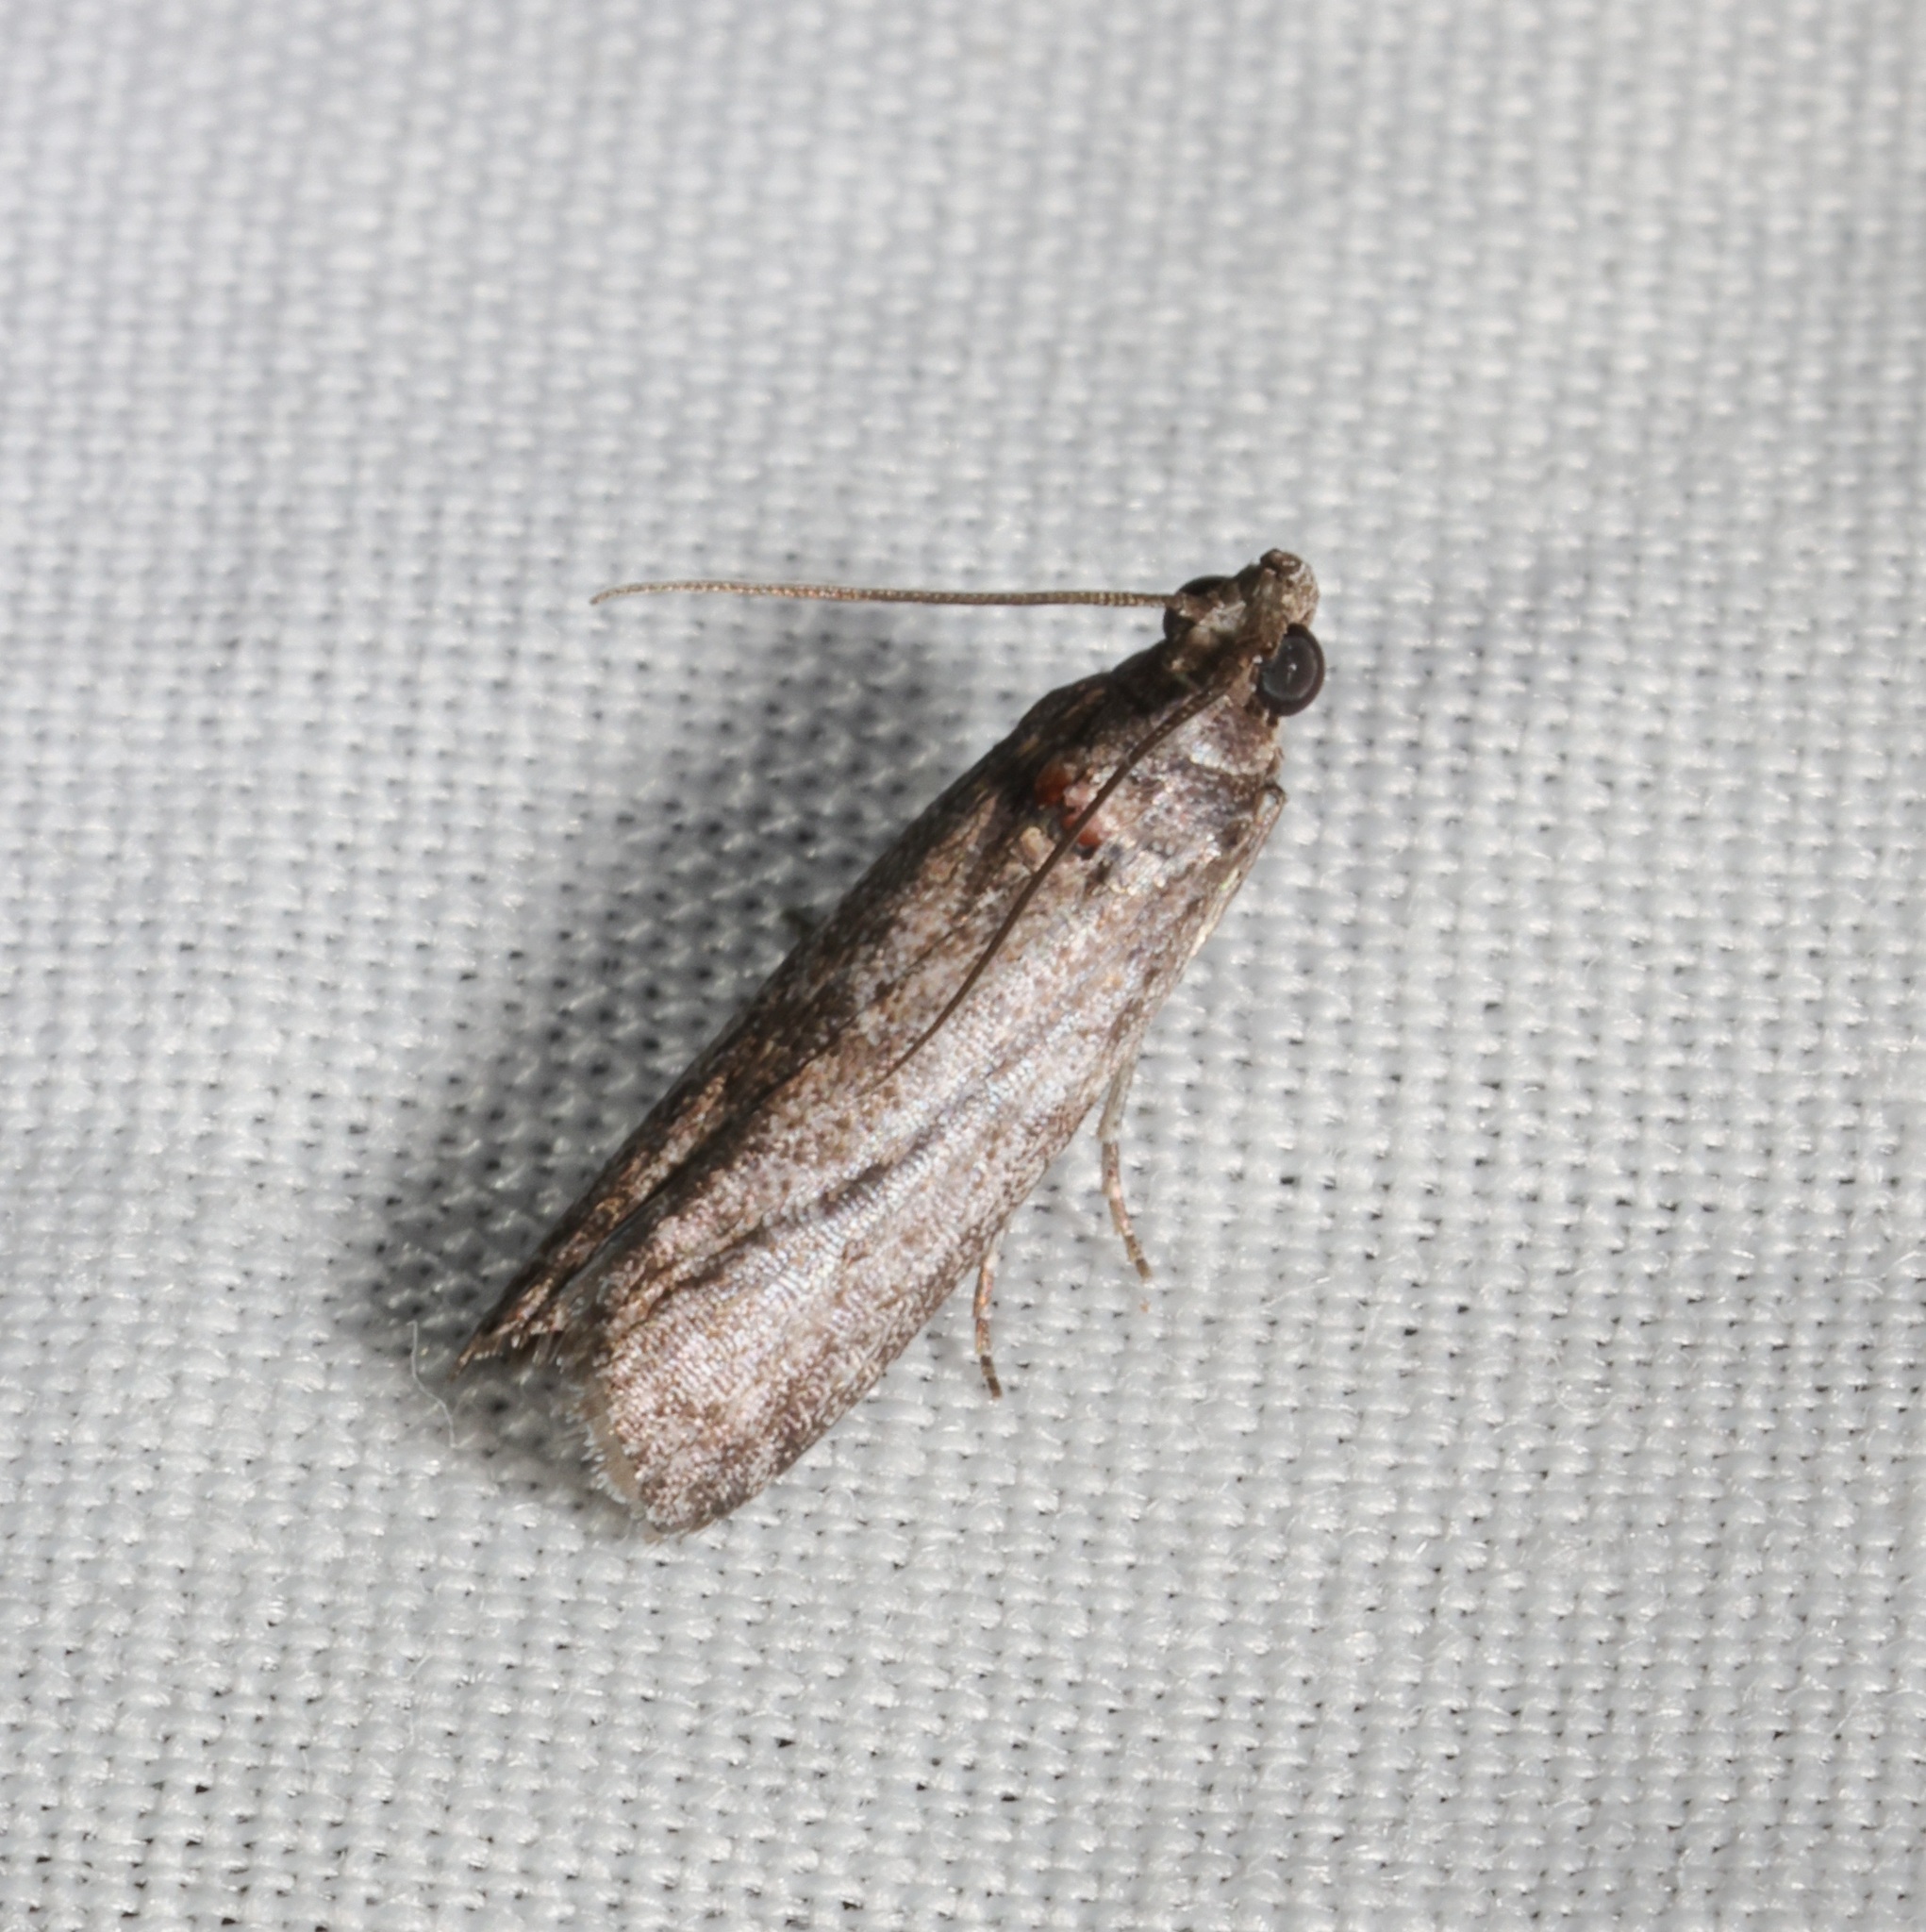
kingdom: Animalia
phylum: Arthropoda
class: Insecta
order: Lepidoptera
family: Pyralidae
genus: Ectomyelois
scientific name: Ectomyelois ceratoniae
